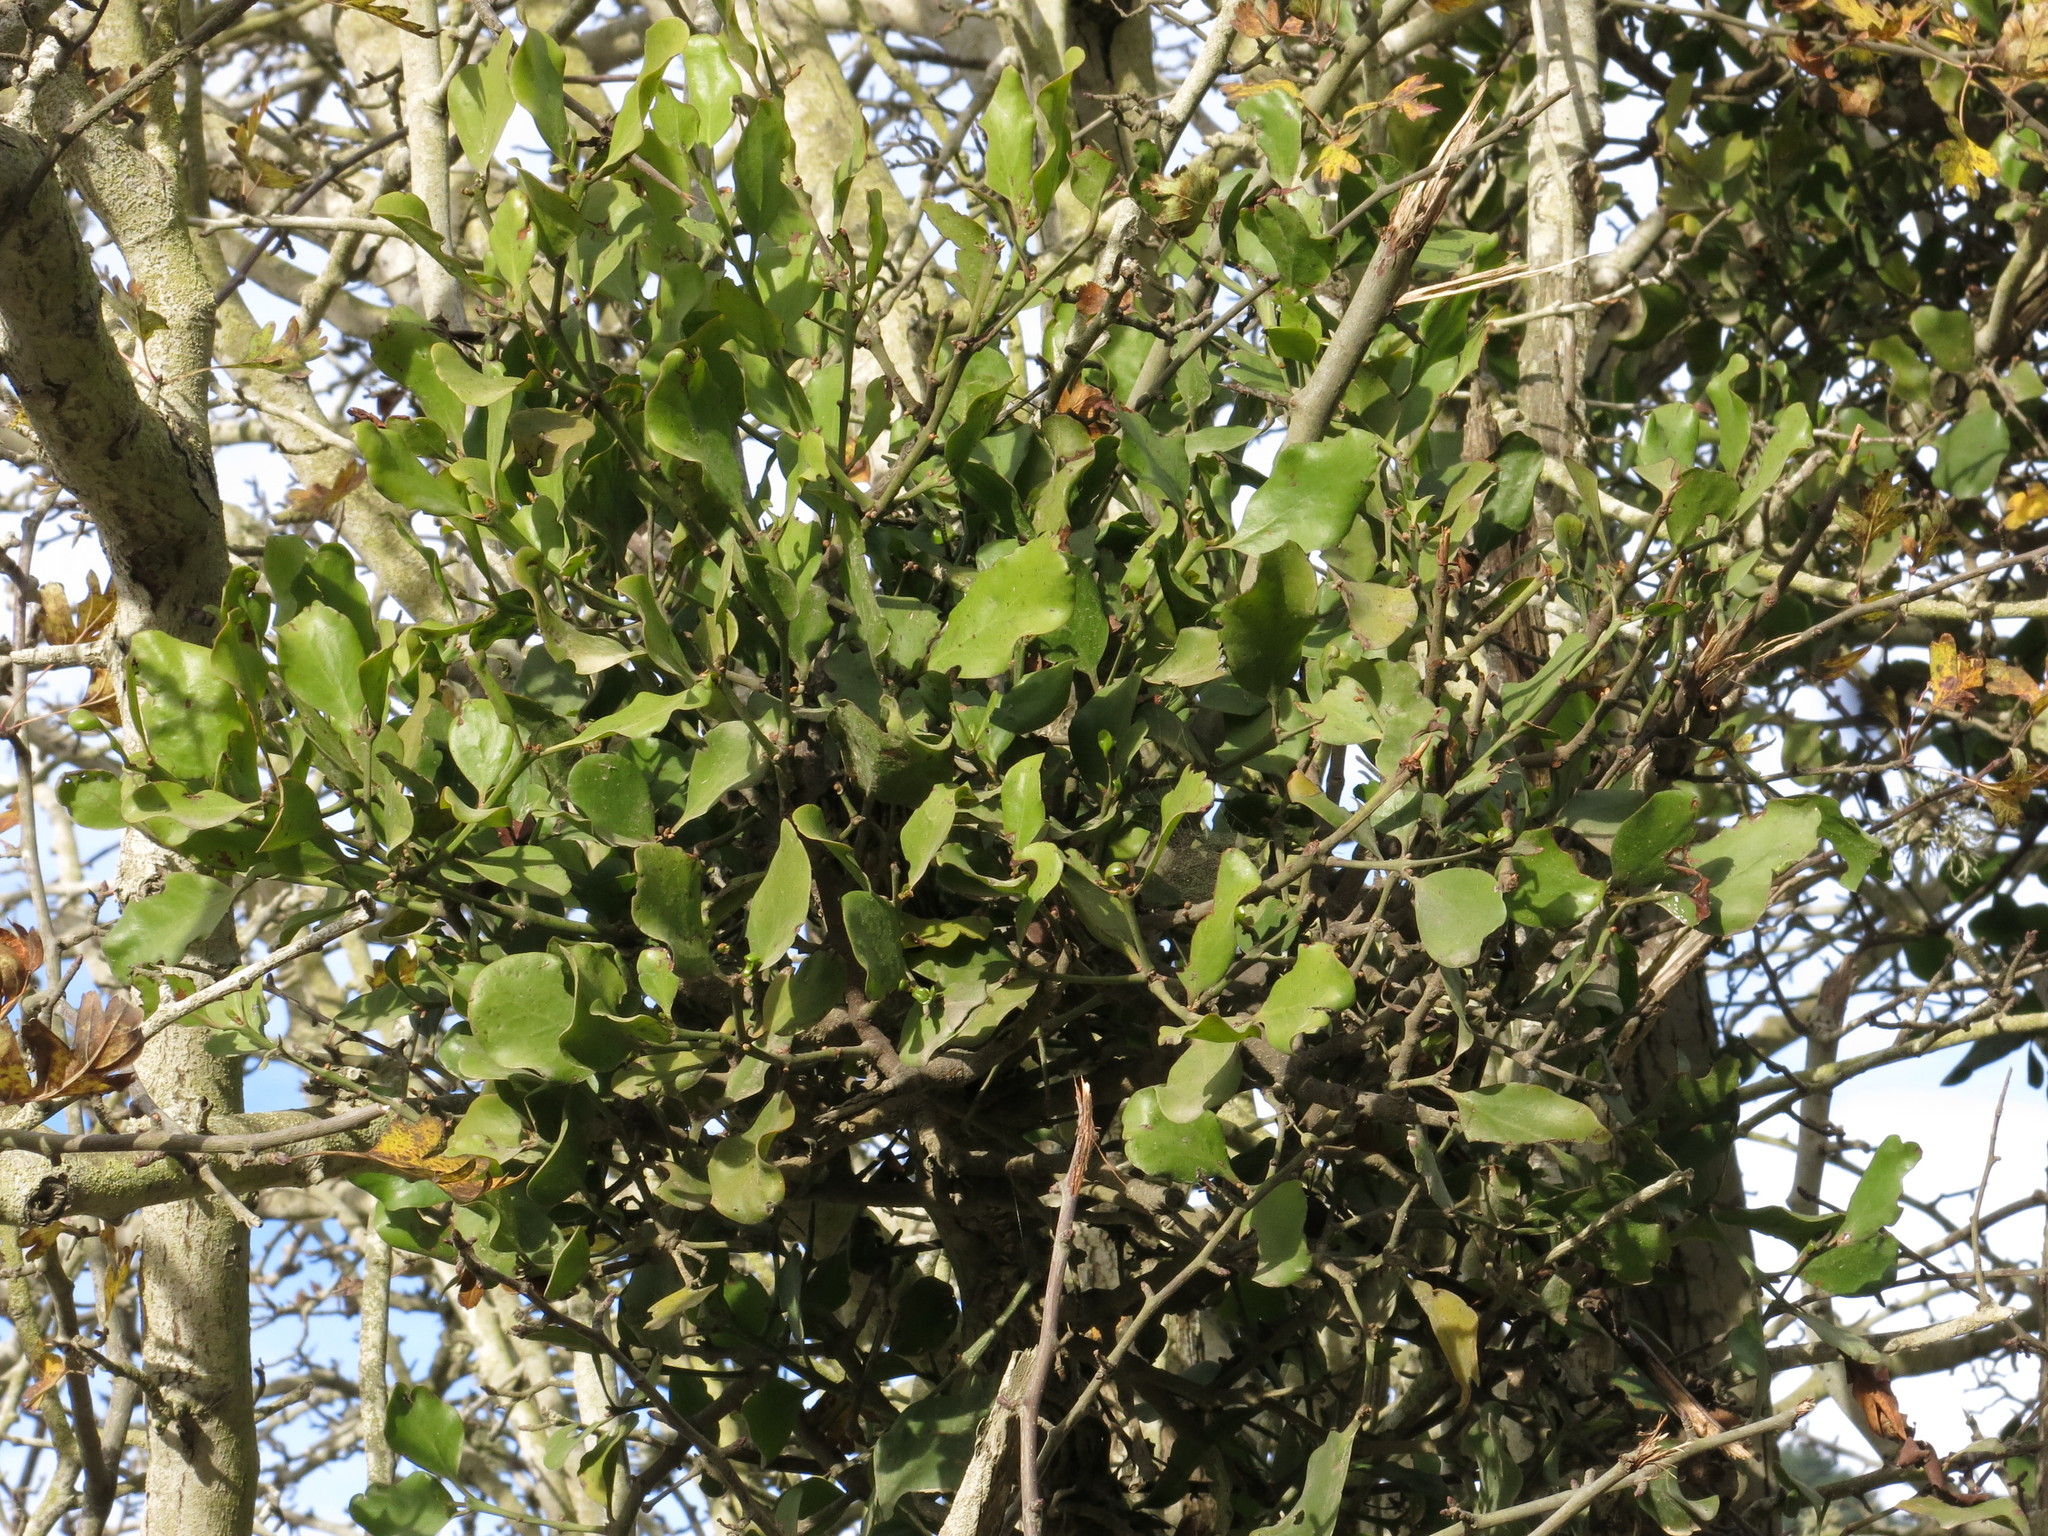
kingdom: Plantae
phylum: Tracheophyta
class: Magnoliopsida
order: Santalales
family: Loranthaceae
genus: Ileostylus
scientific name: Ileostylus micranthus
